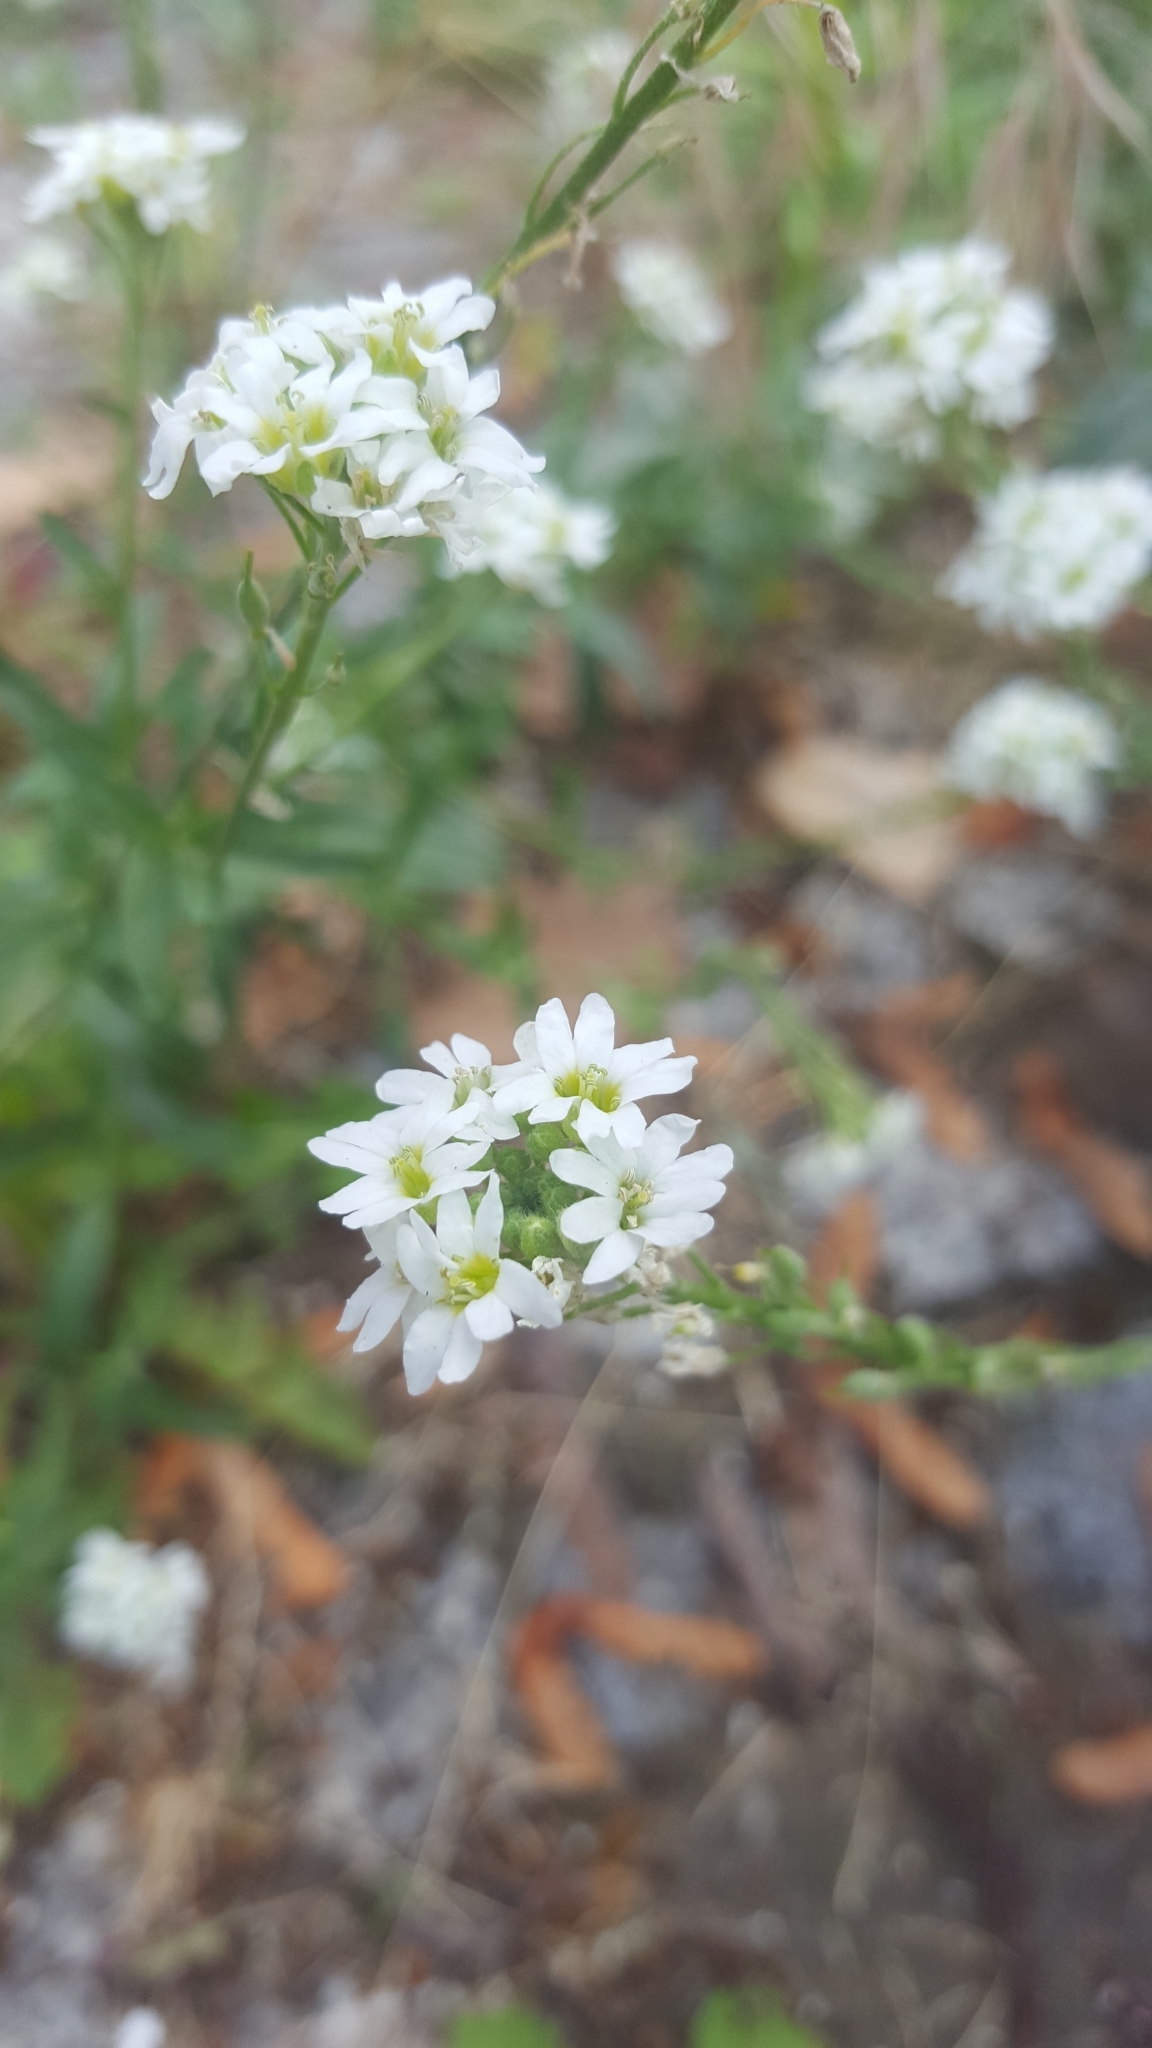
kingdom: Plantae
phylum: Tracheophyta
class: Magnoliopsida
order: Brassicales
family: Brassicaceae
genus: Berteroa
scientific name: Berteroa incana
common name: Hoary alison
